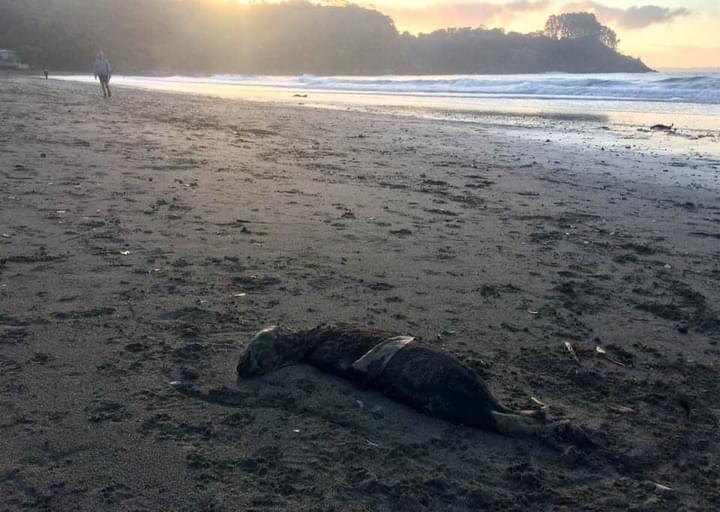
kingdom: Animalia
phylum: Chordata
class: Mammalia
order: Carnivora
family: Otariidae
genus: Arctocephalus
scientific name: Arctocephalus forsteri
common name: New zealand fur seal
